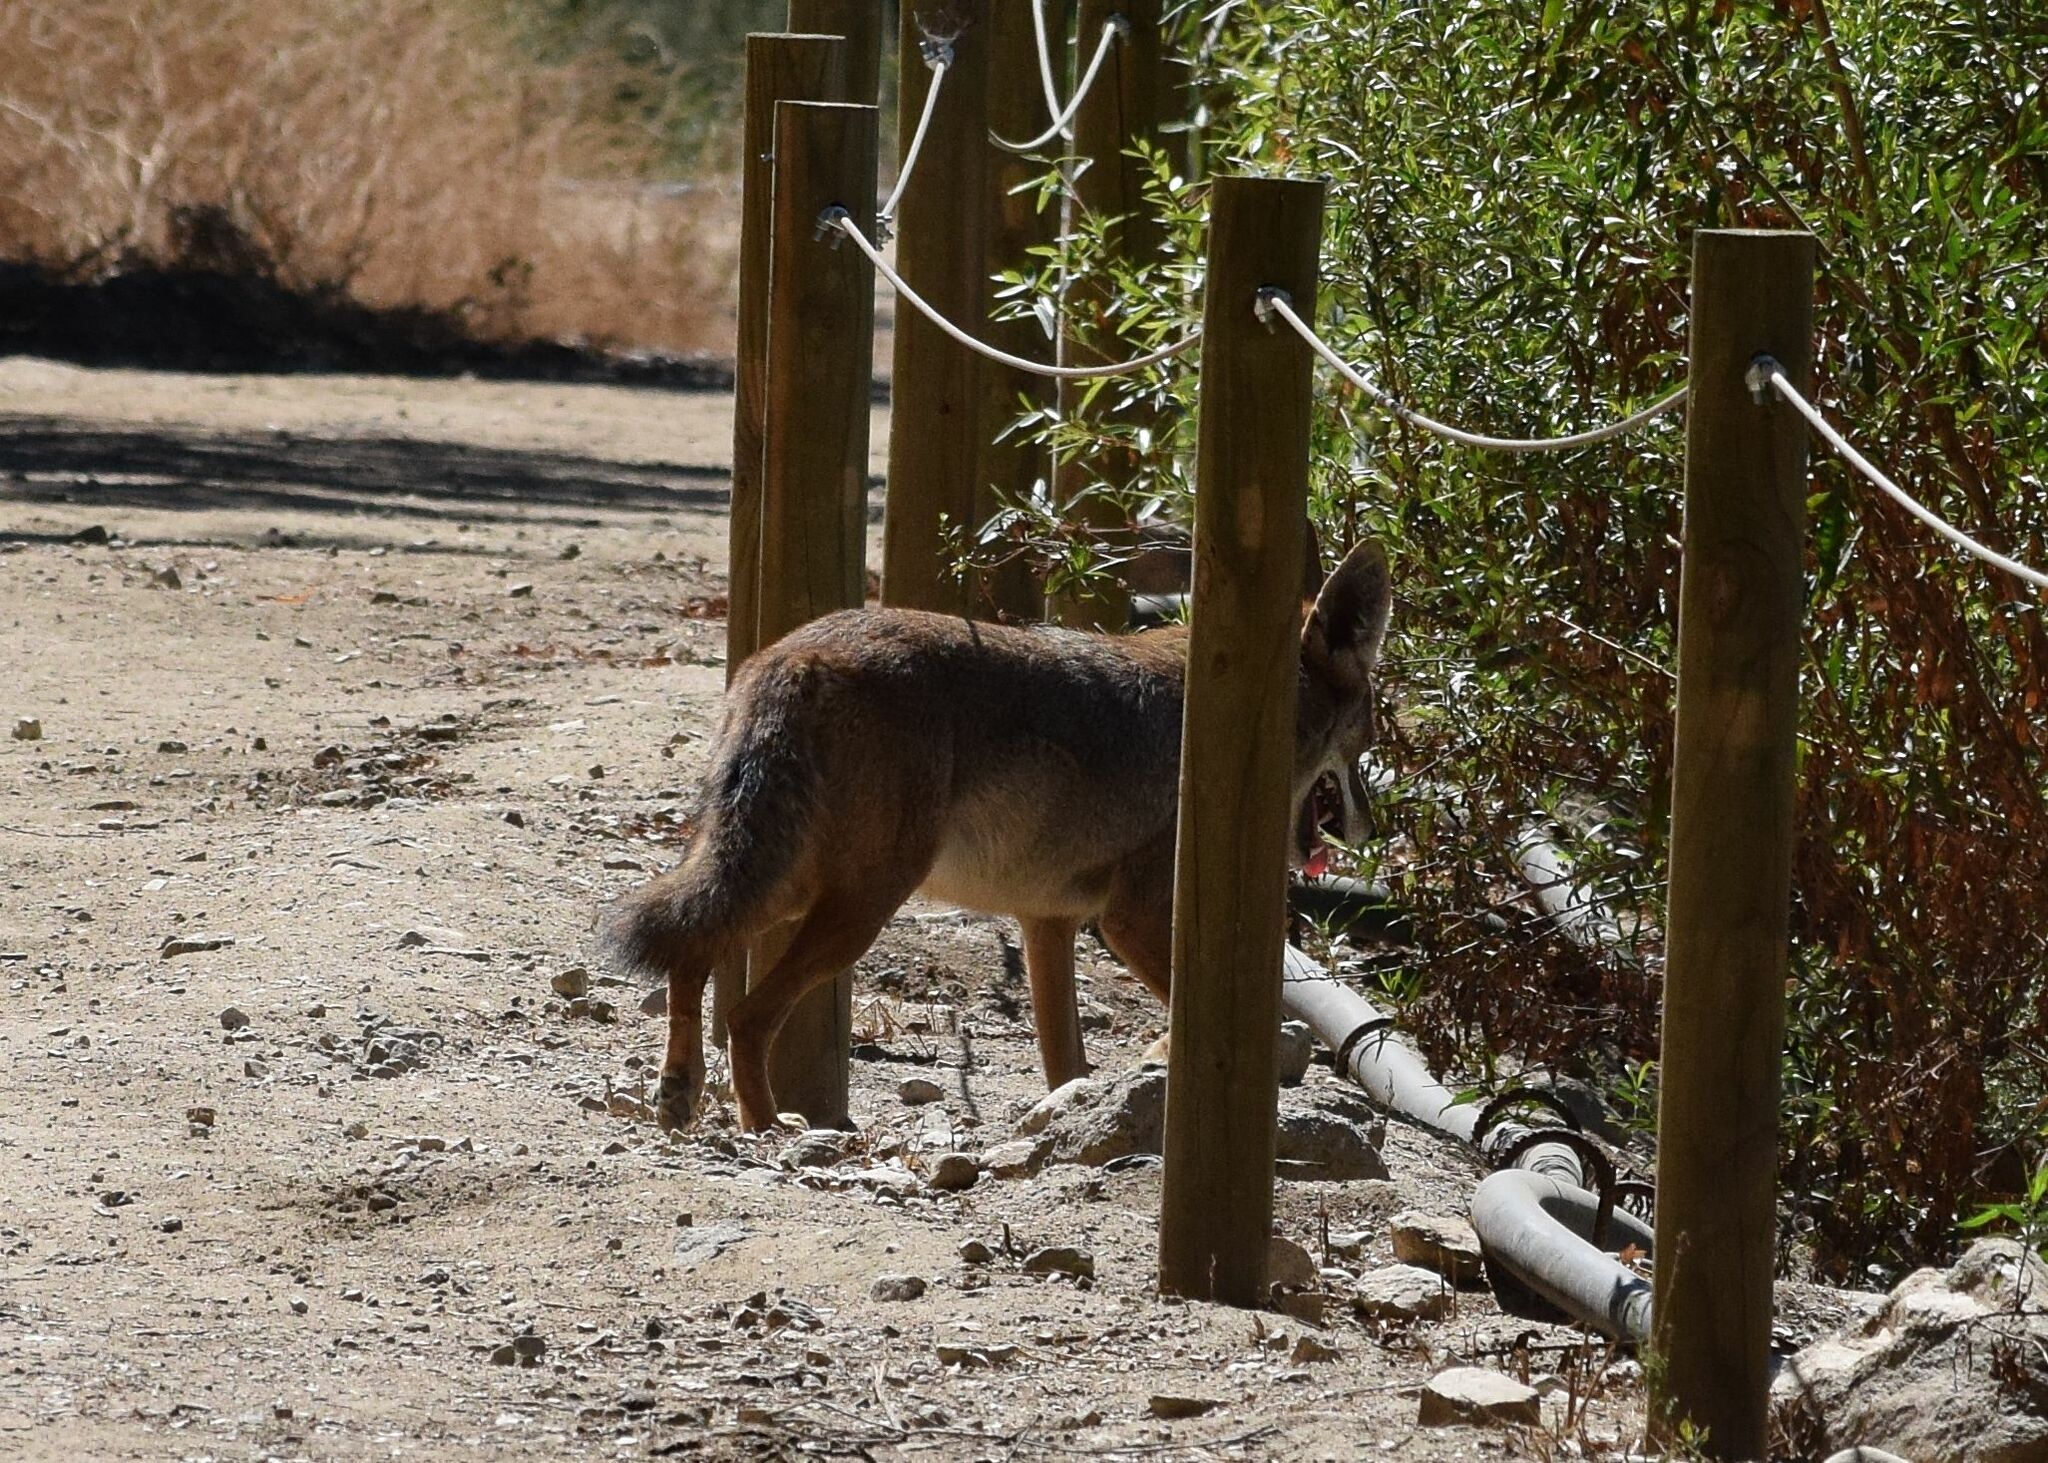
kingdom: Animalia
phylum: Chordata
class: Mammalia
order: Carnivora
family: Canidae
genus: Canis
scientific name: Canis latrans
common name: Coyote
